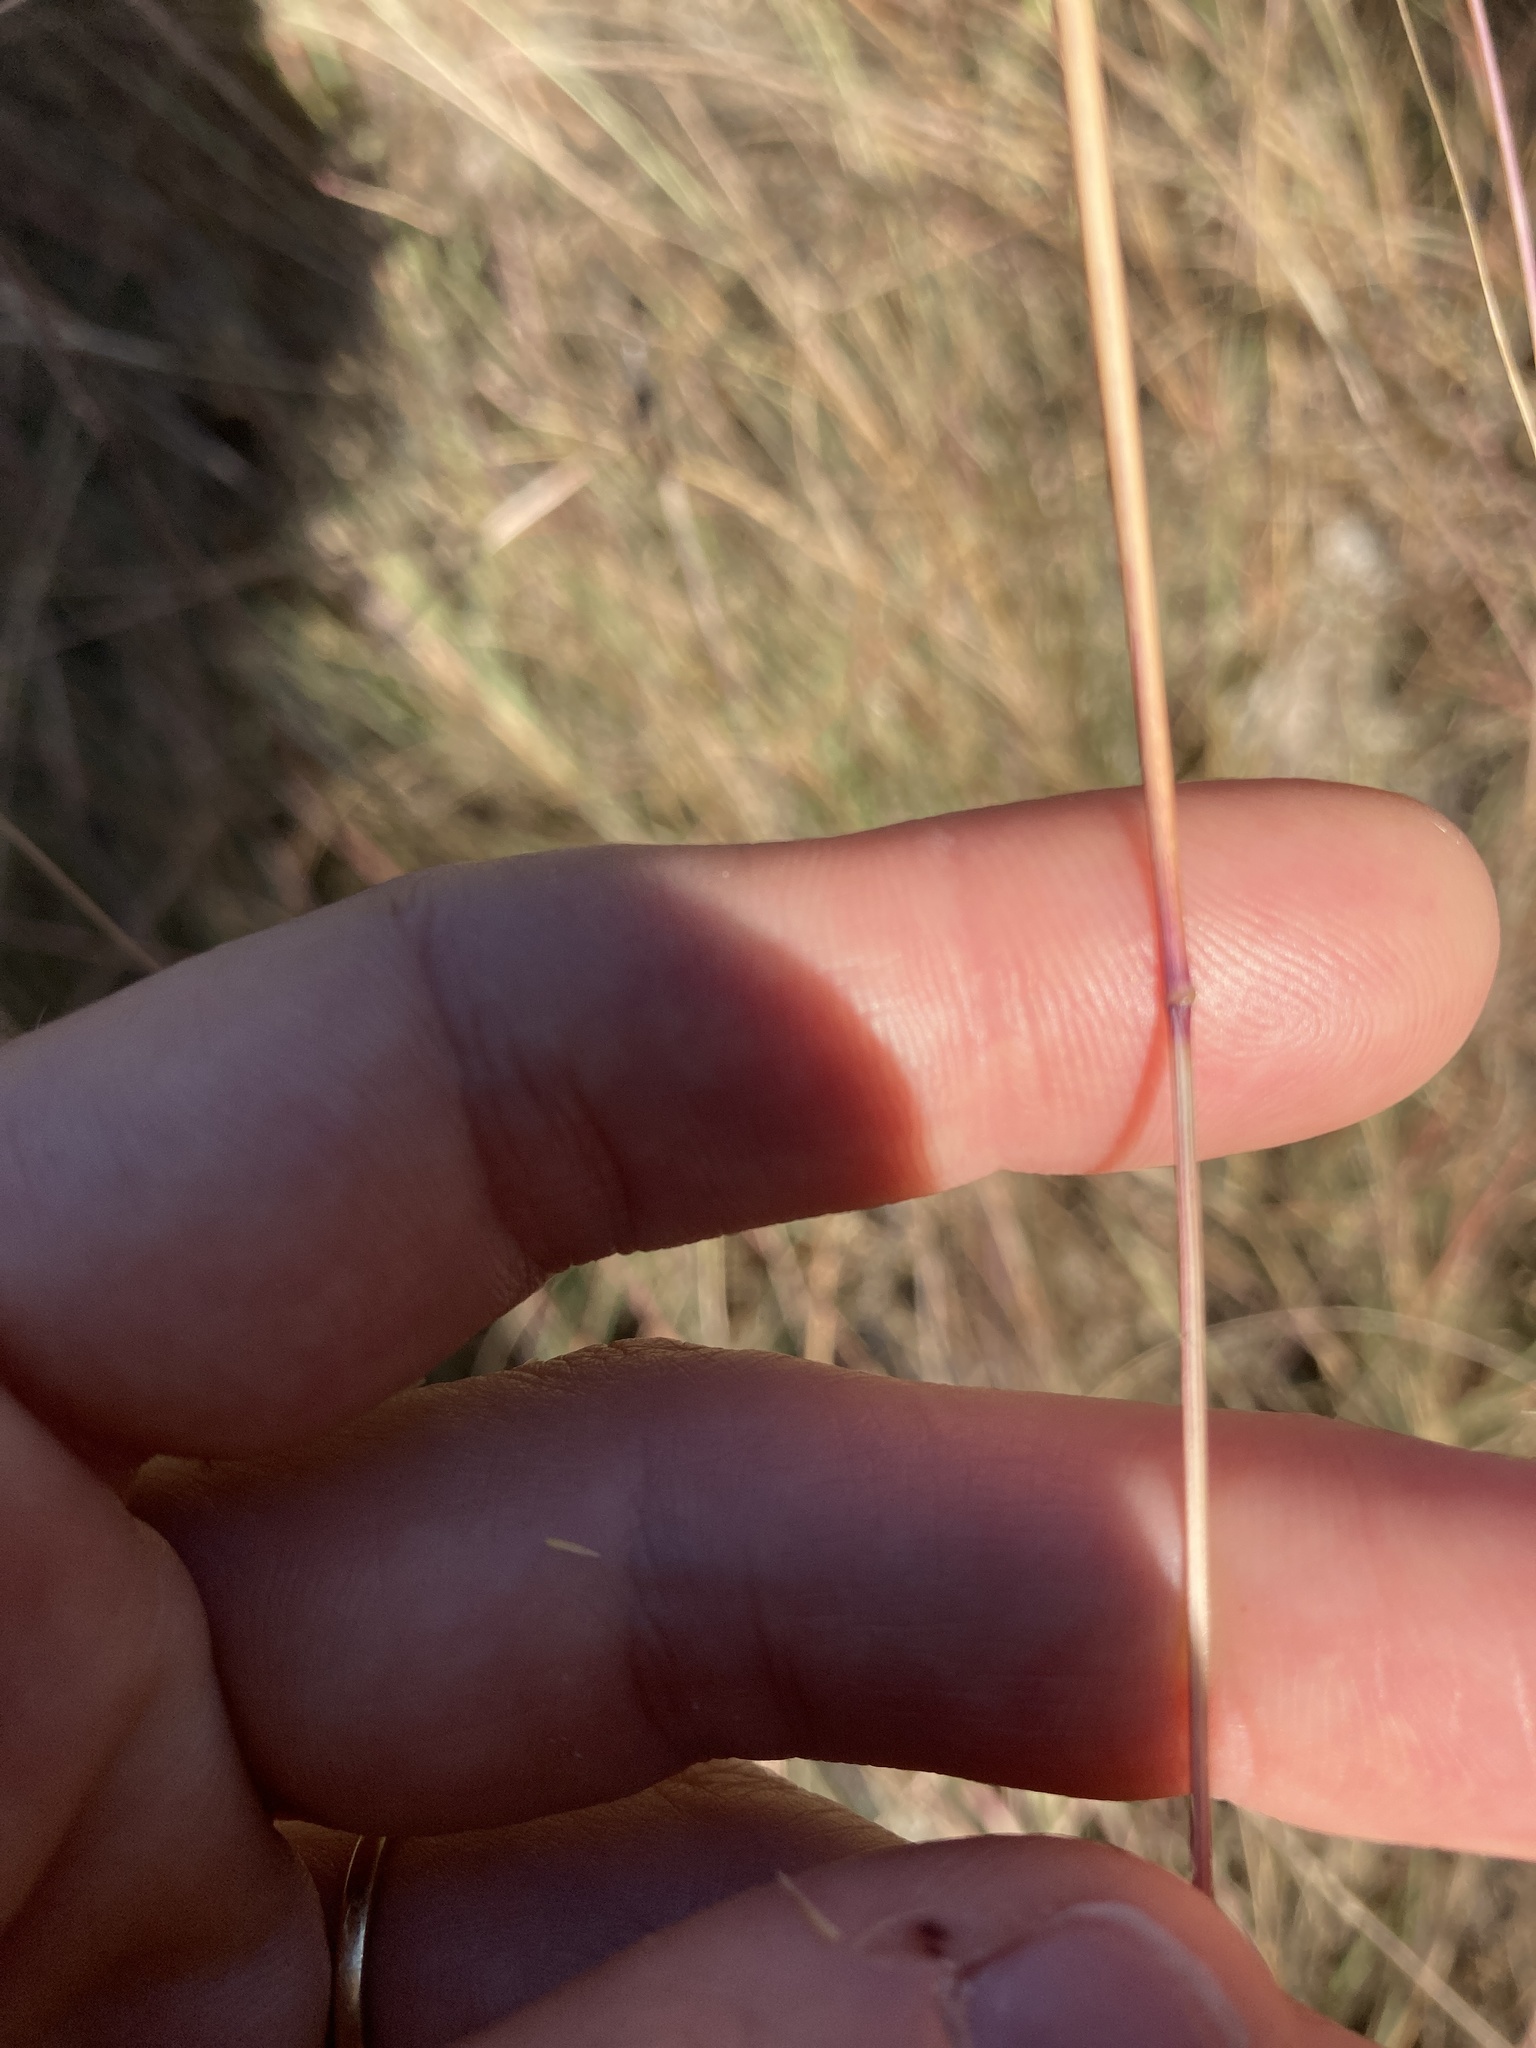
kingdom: Plantae
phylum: Tracheophyta
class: Liliopsida
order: Poales
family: Poaceae
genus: Sporobolus
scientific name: Sporobolus compositus
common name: Rough dropseed
